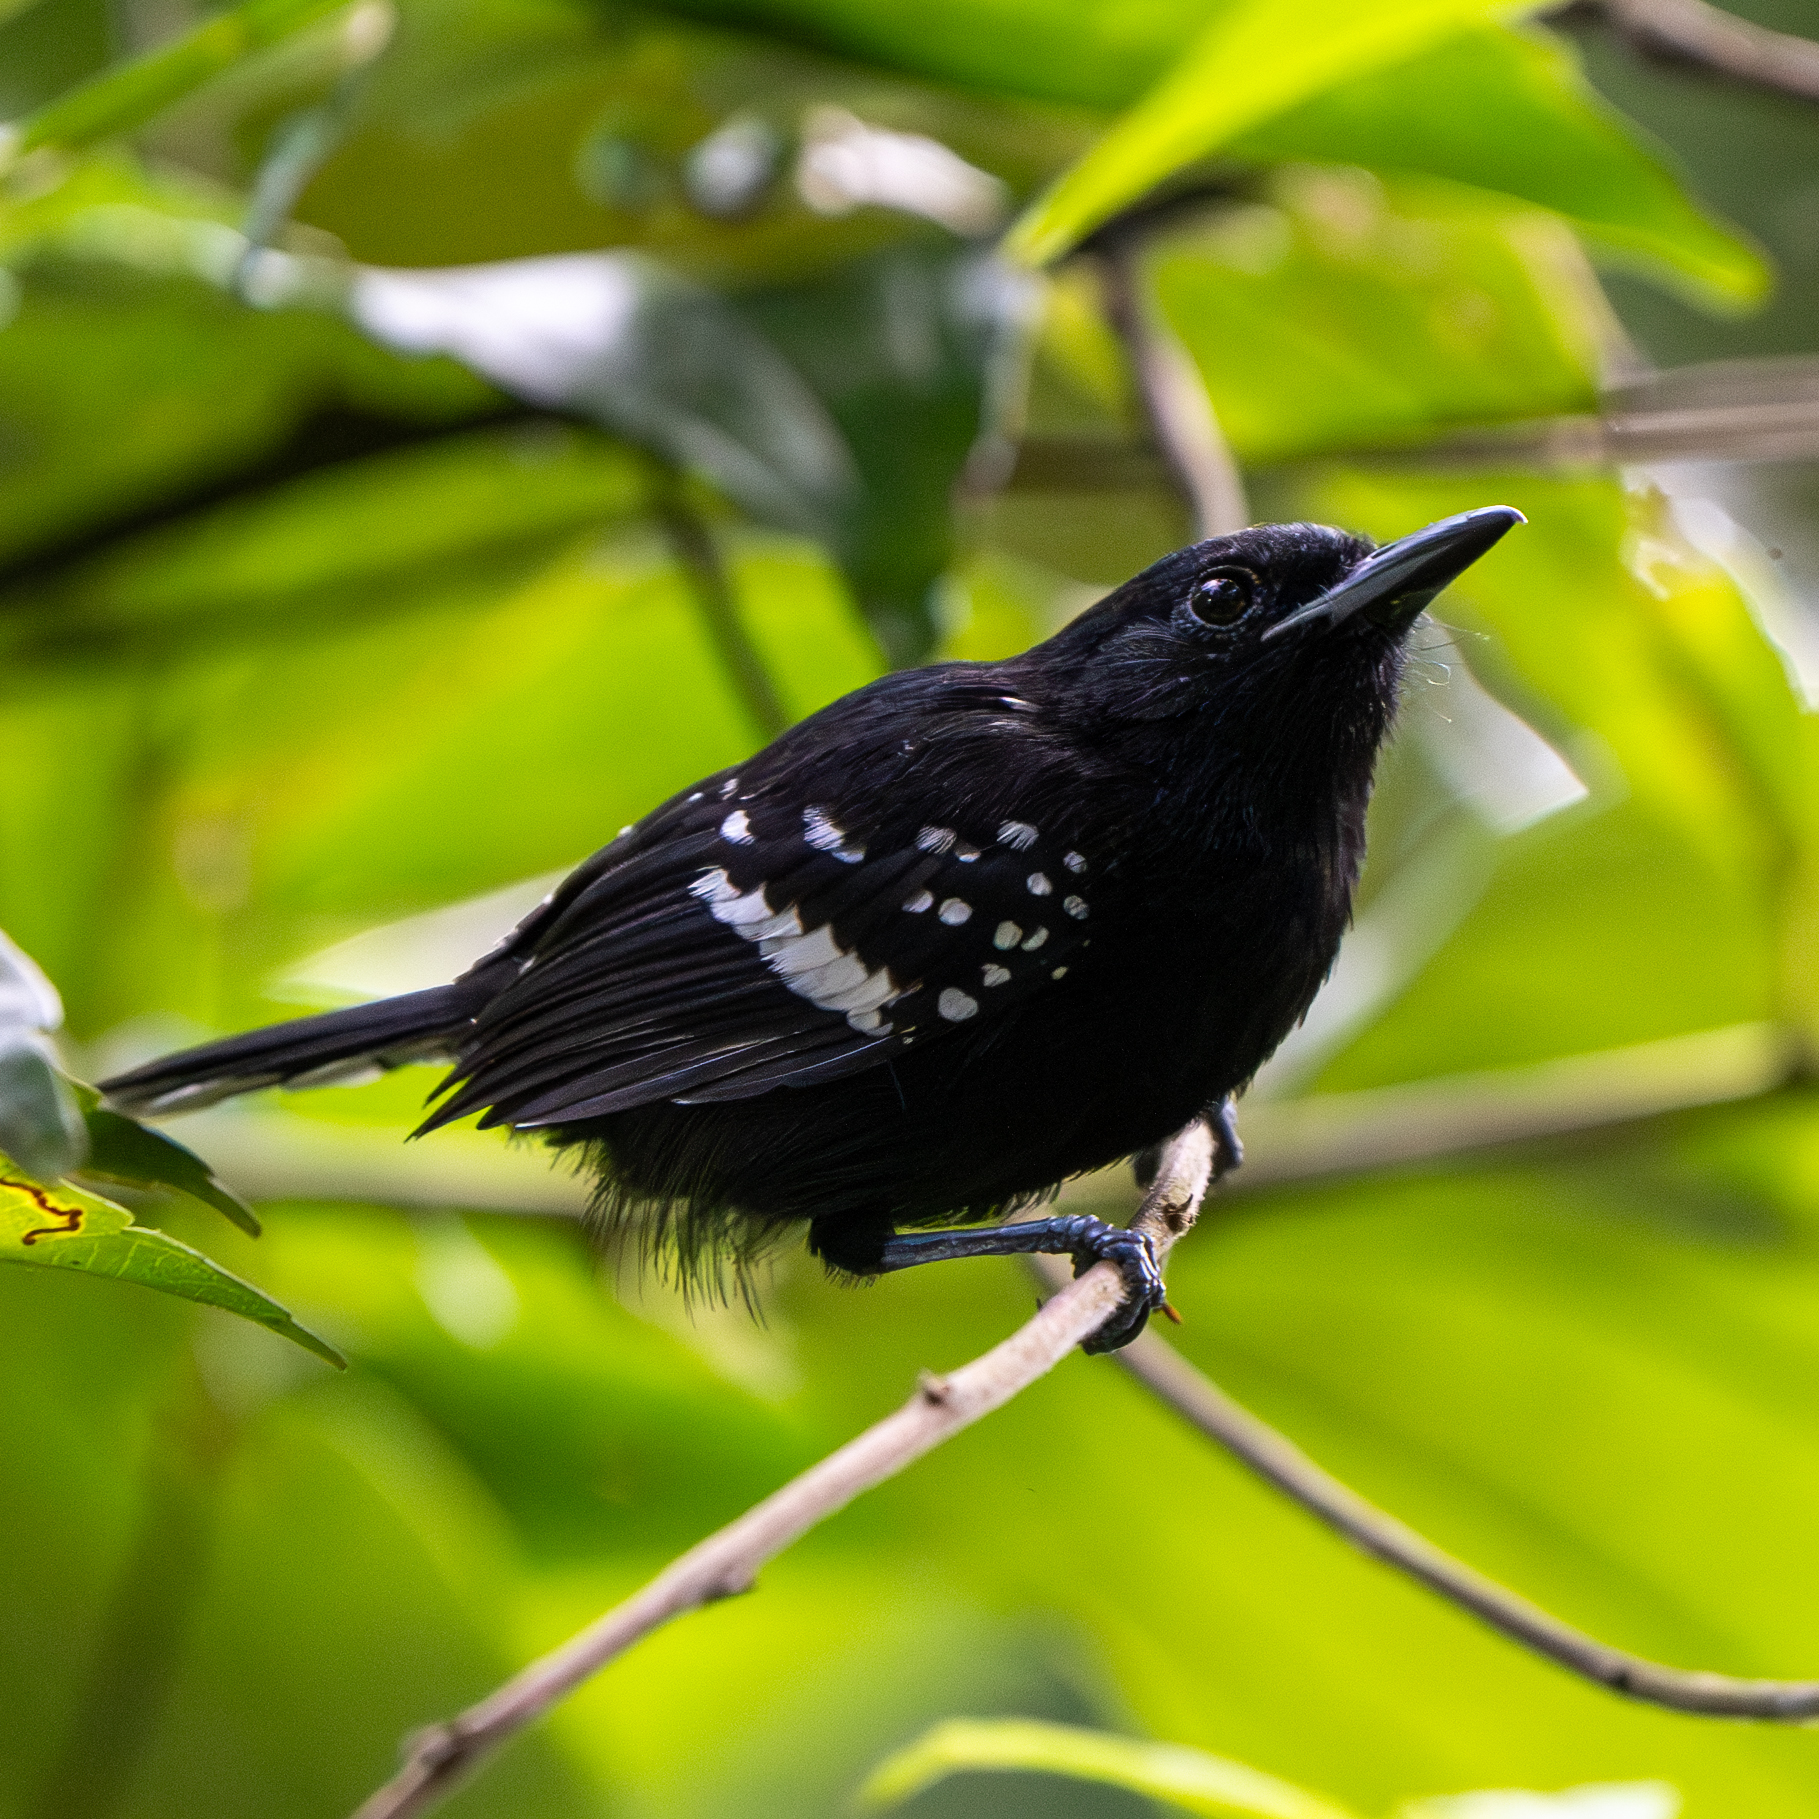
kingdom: Animalia
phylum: Chordata
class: Aves
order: Passeriformes
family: Thamnophilidae
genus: Microrhopias
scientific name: Microrhopias quixensis
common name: Dot-winged antwren
